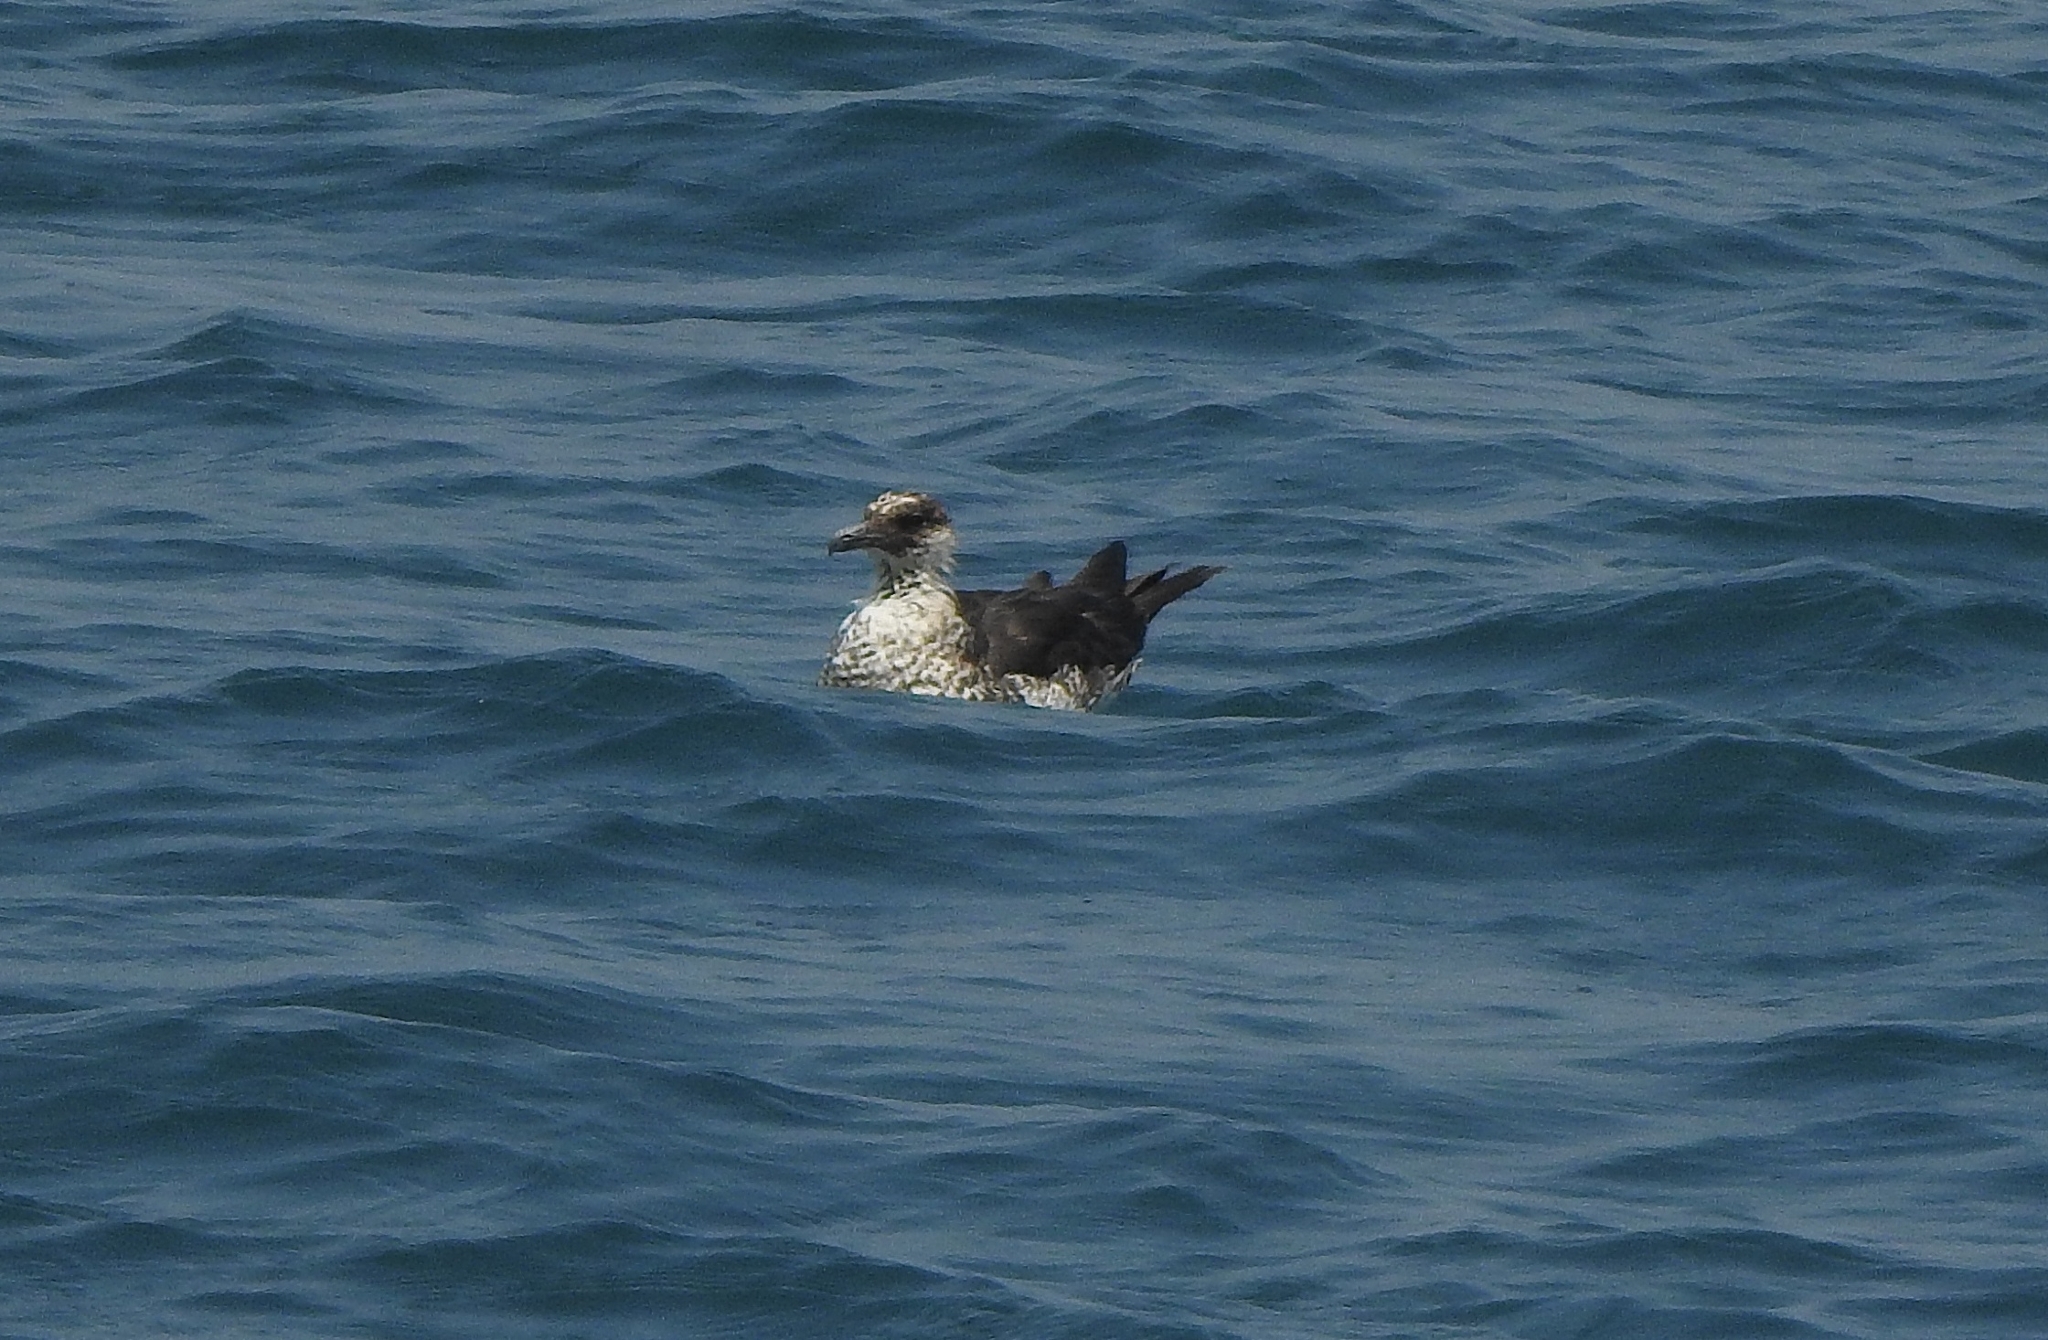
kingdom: Animalia
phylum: Chordata
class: Aves
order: Charadriiformes
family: Stercorariidae
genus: Stercorarius
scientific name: Stercorarius pomarinus
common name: Pomarine jaeger
